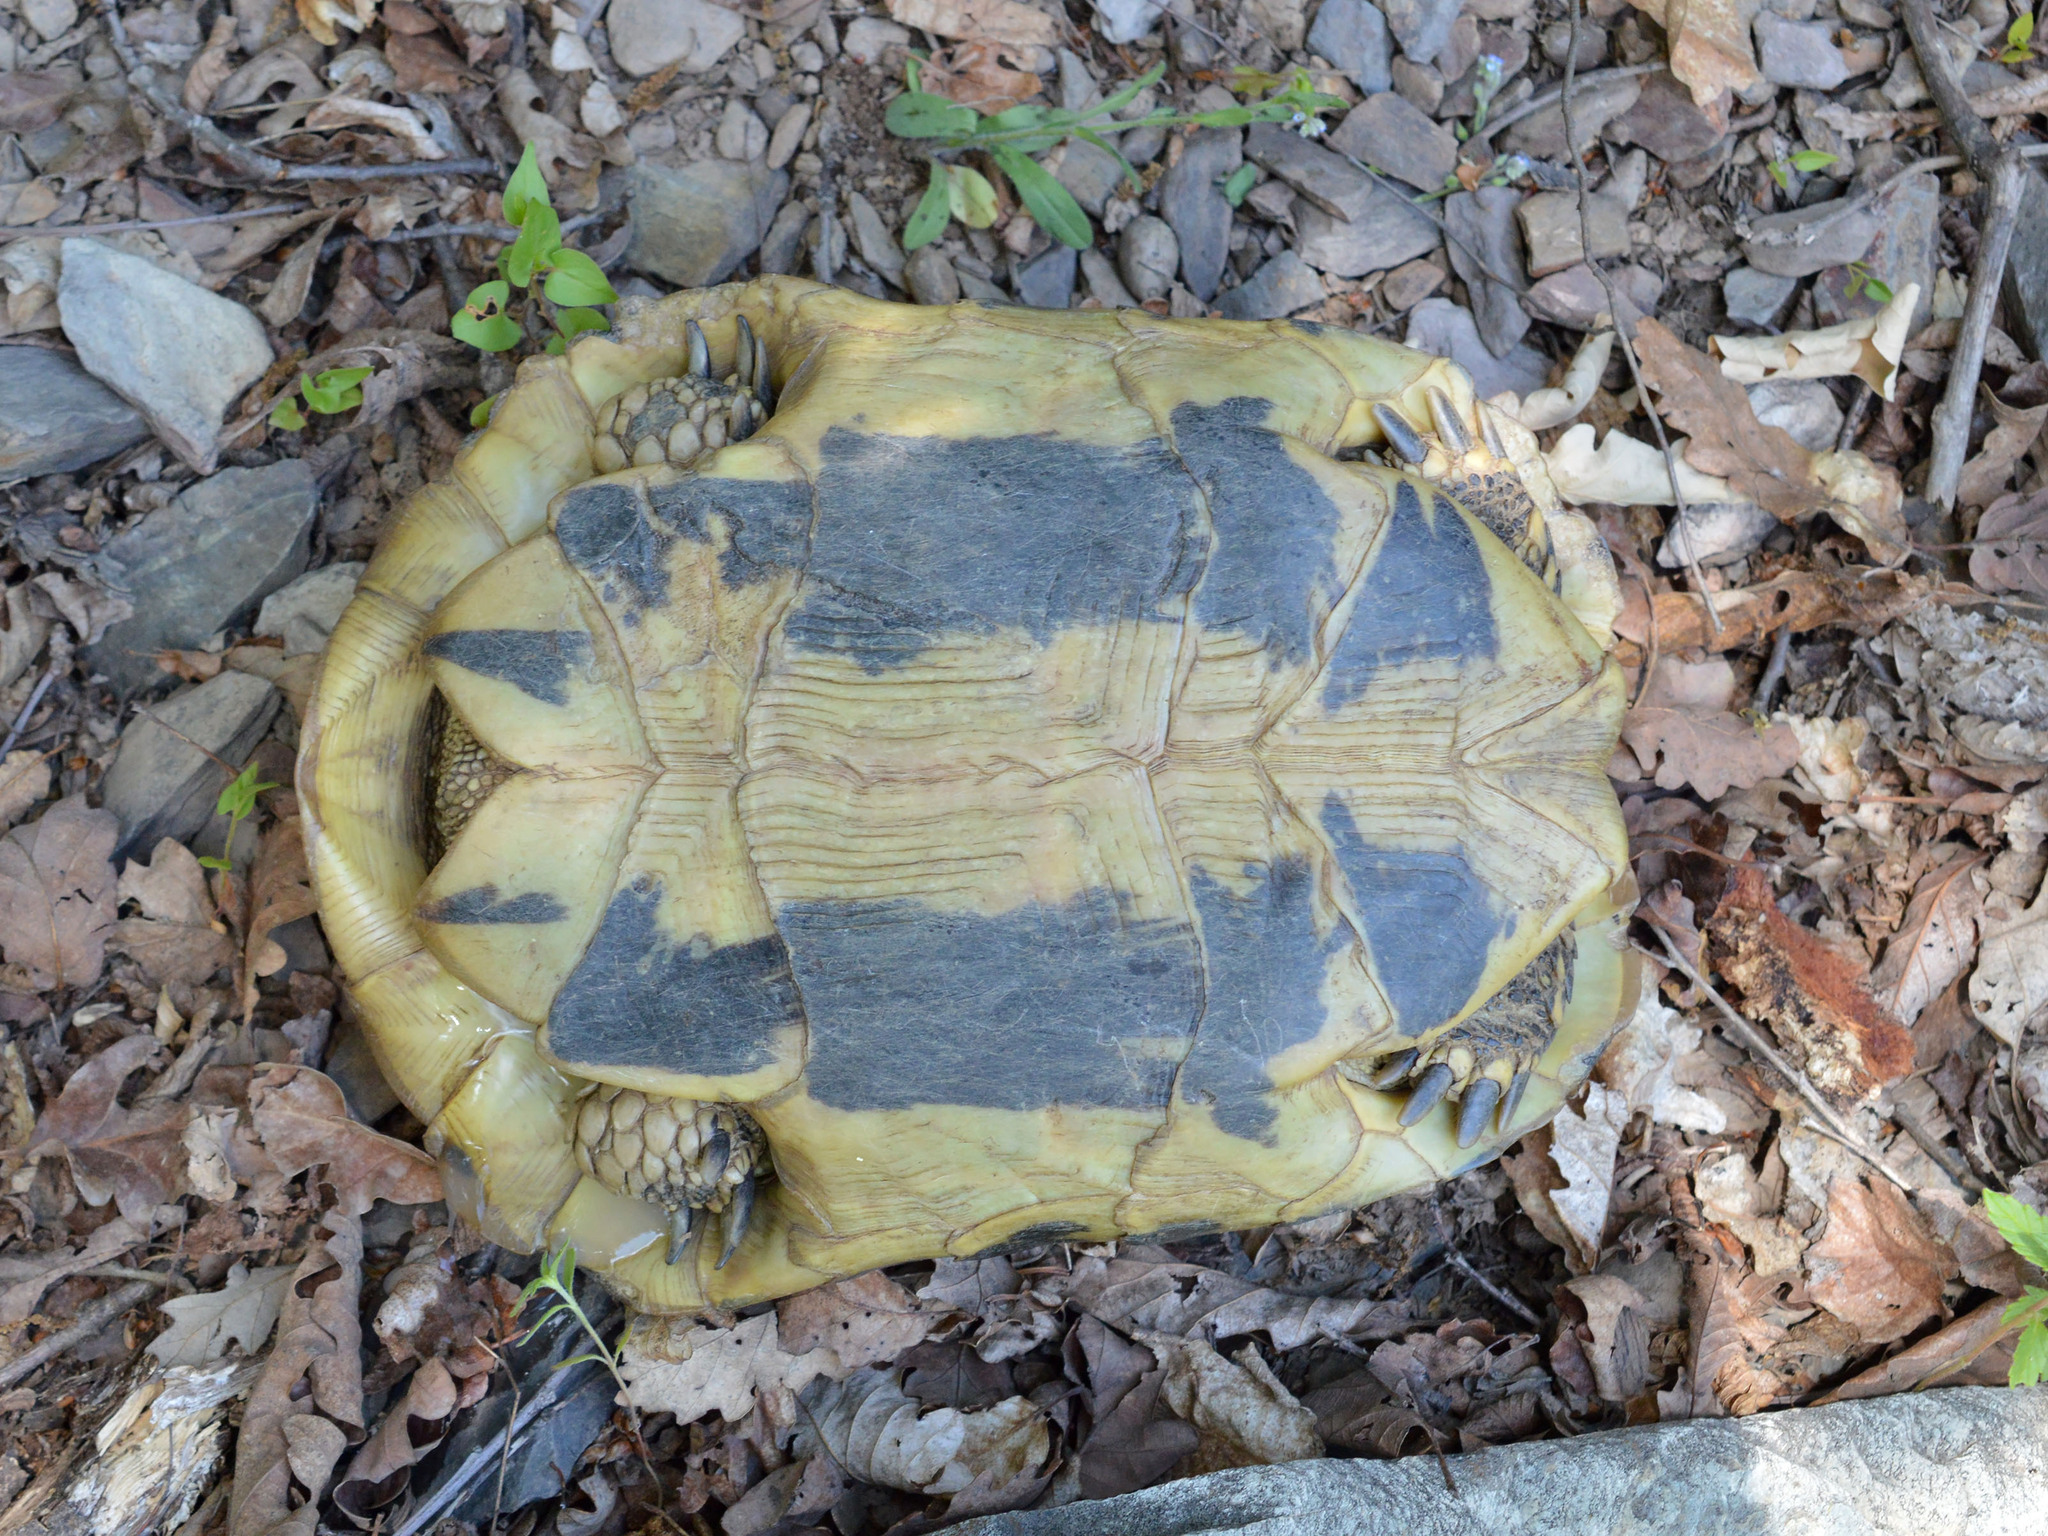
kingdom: Animalia
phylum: Chordata
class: Testudines
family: Testudinidae
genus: Testudo
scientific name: Testudo hermanni
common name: Hermann's tortoise
